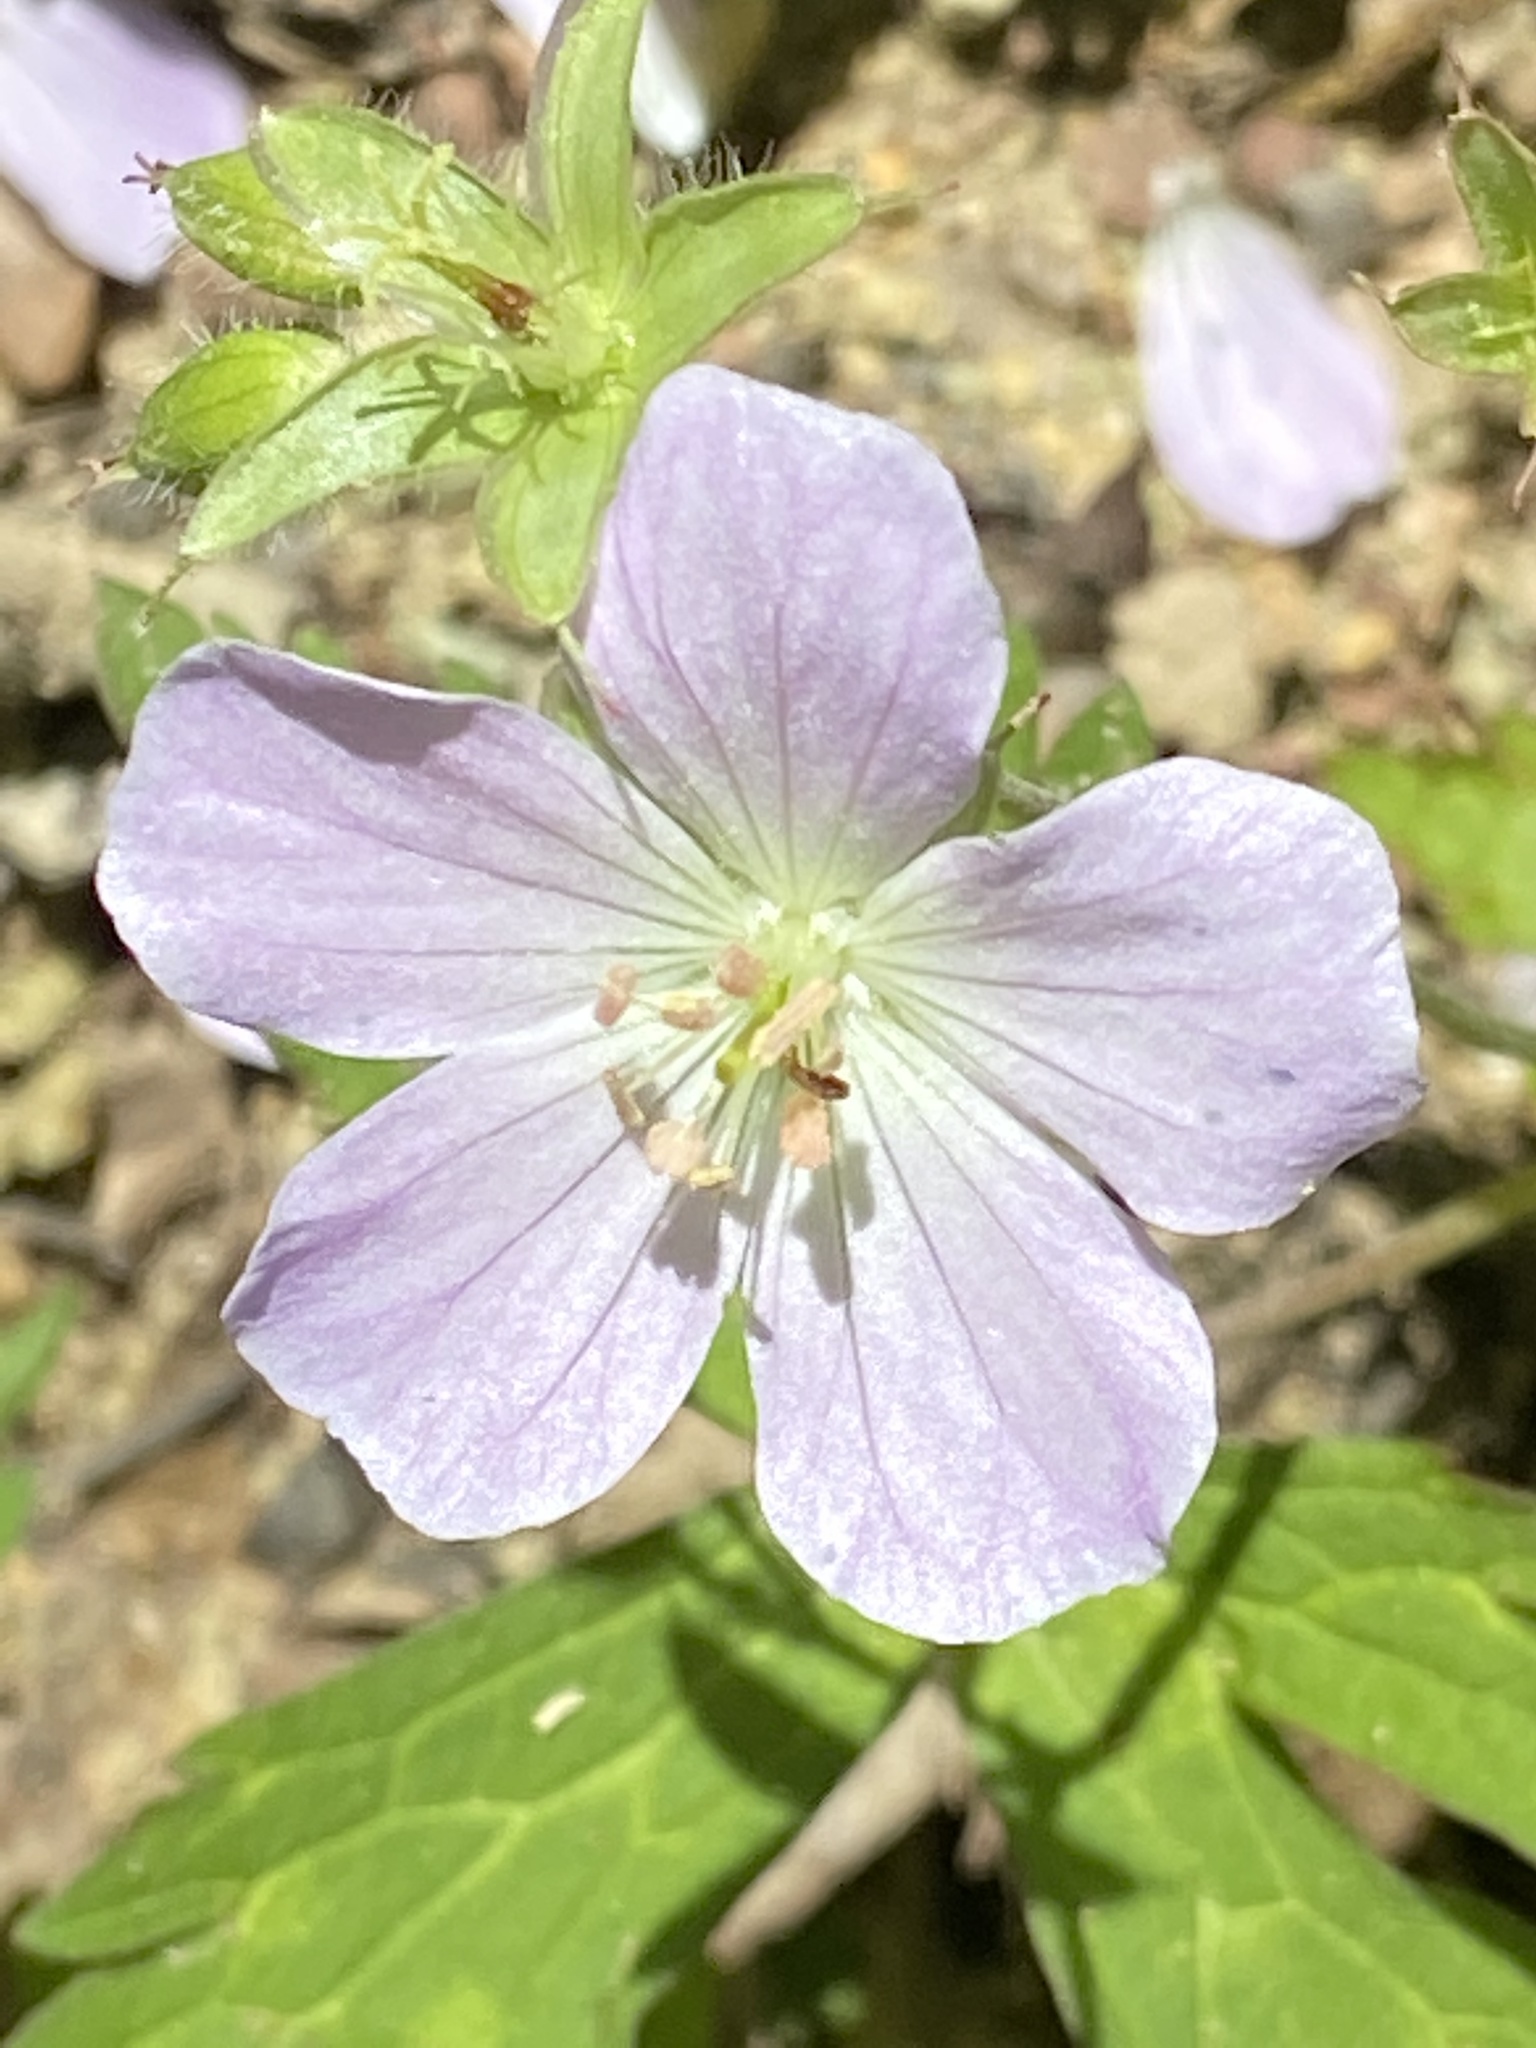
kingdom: Plantae
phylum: Tracheophyta
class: Magnoliopsida
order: Geraniales
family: Geraniaceae
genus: Geranium
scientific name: Geranium maculatum
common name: Spotted geranium
